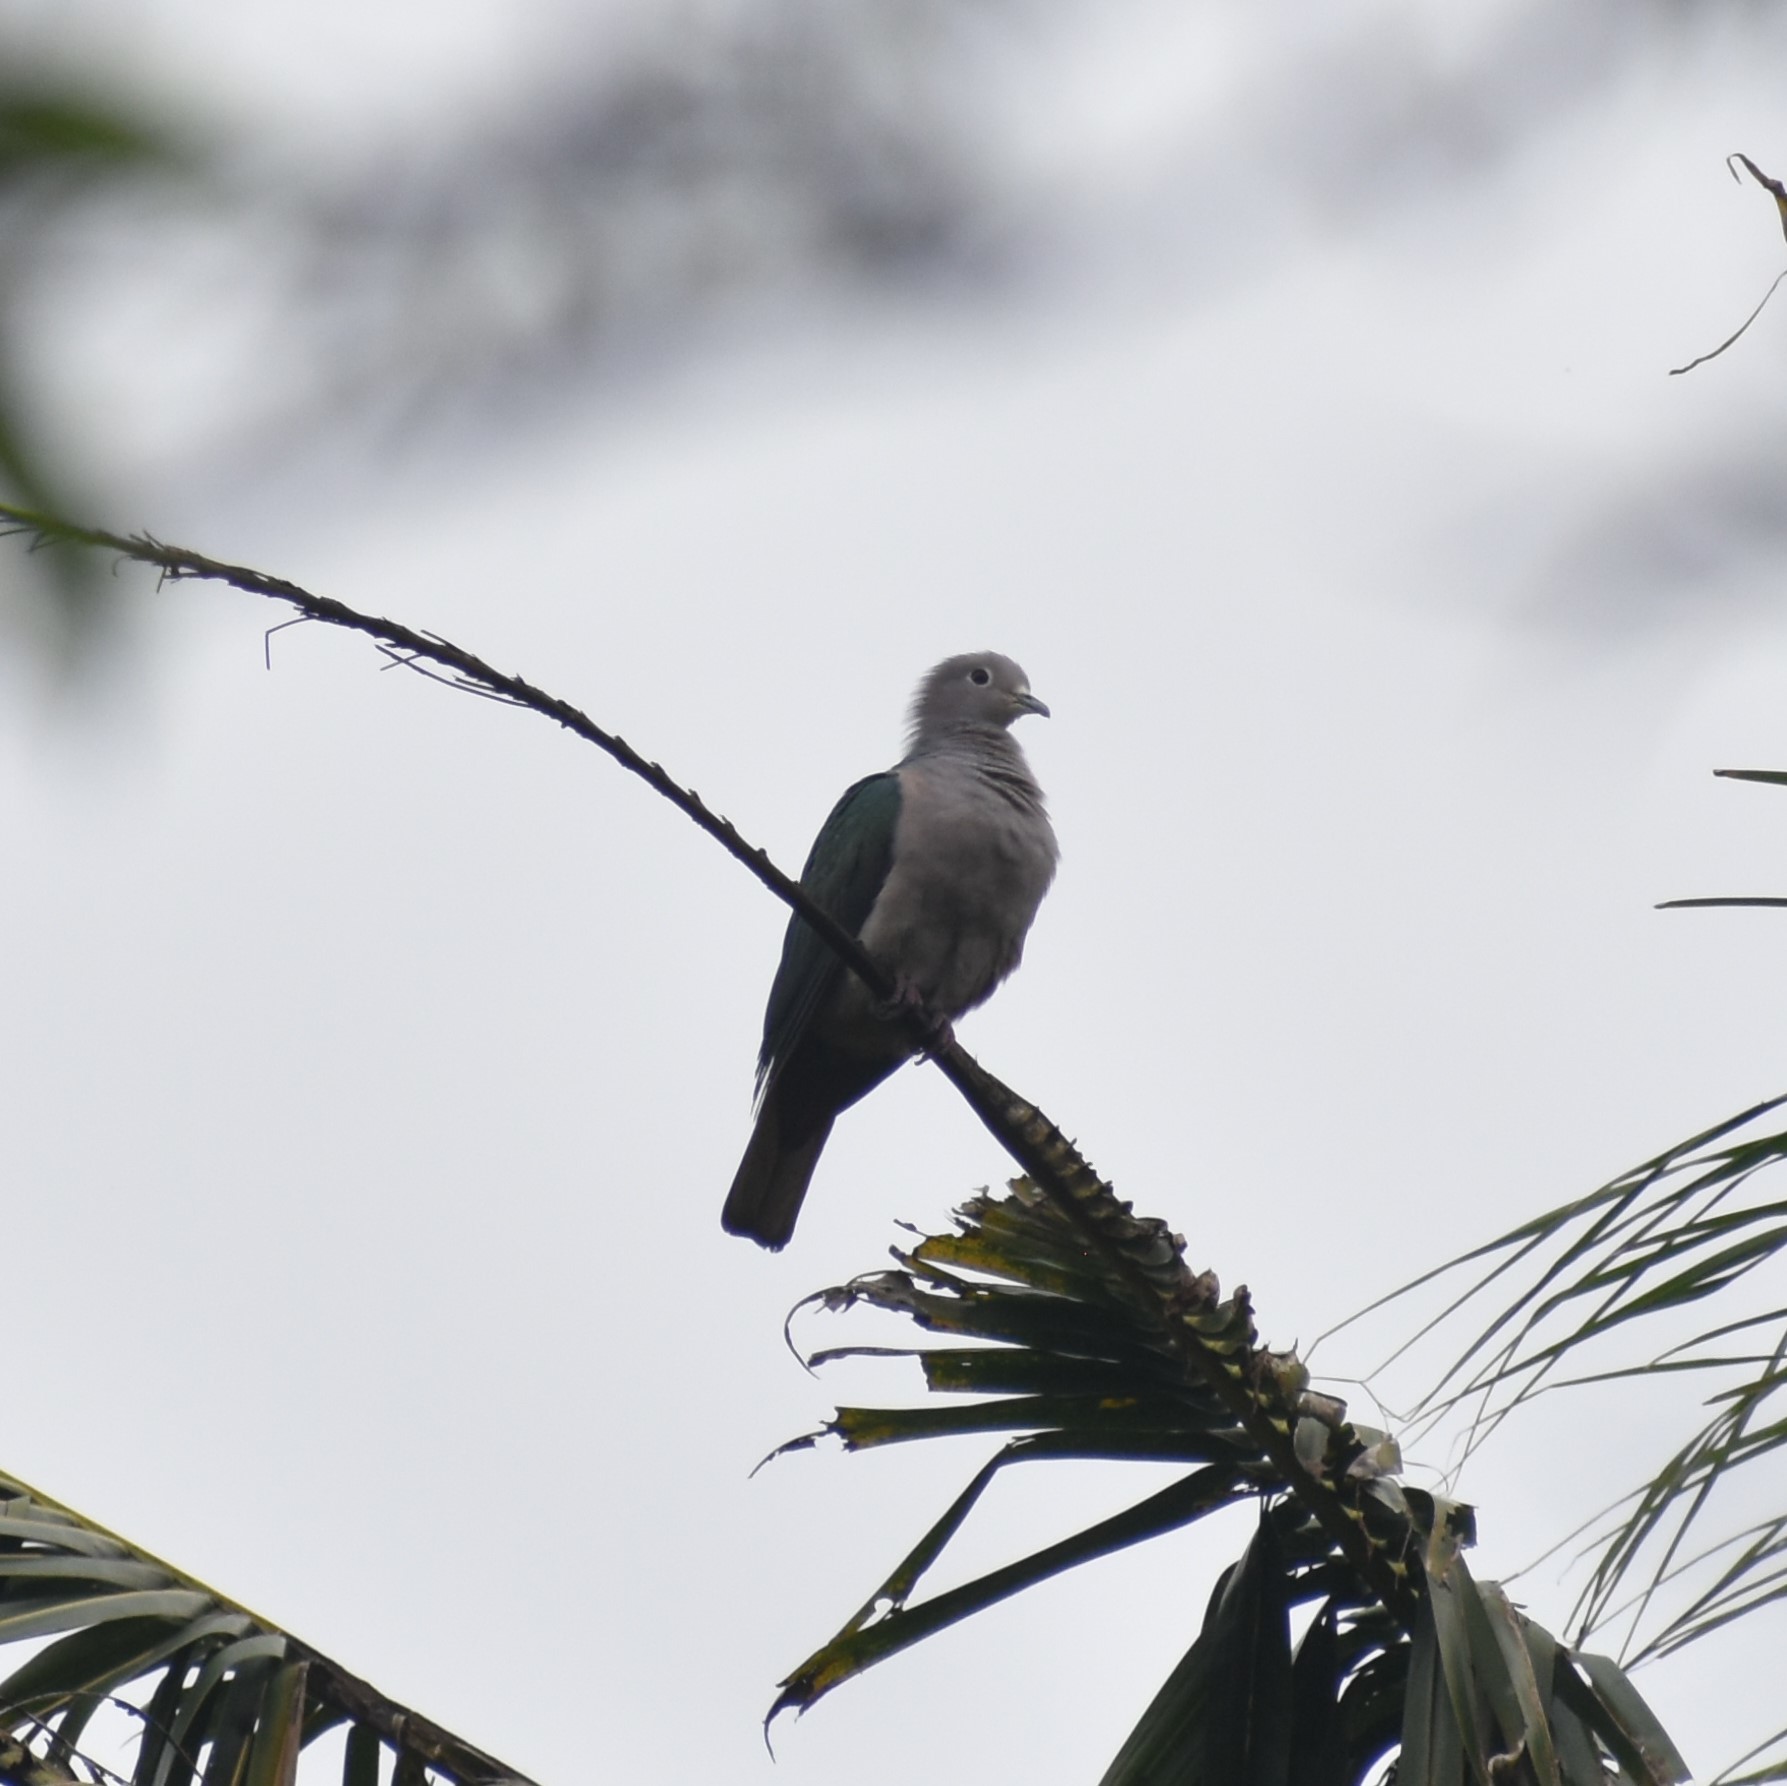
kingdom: Animalia
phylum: Chordata
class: Aves
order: Columbiformes
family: Columbidae
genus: Ducula
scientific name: Ducula aenea
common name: Green imperial pigeon
